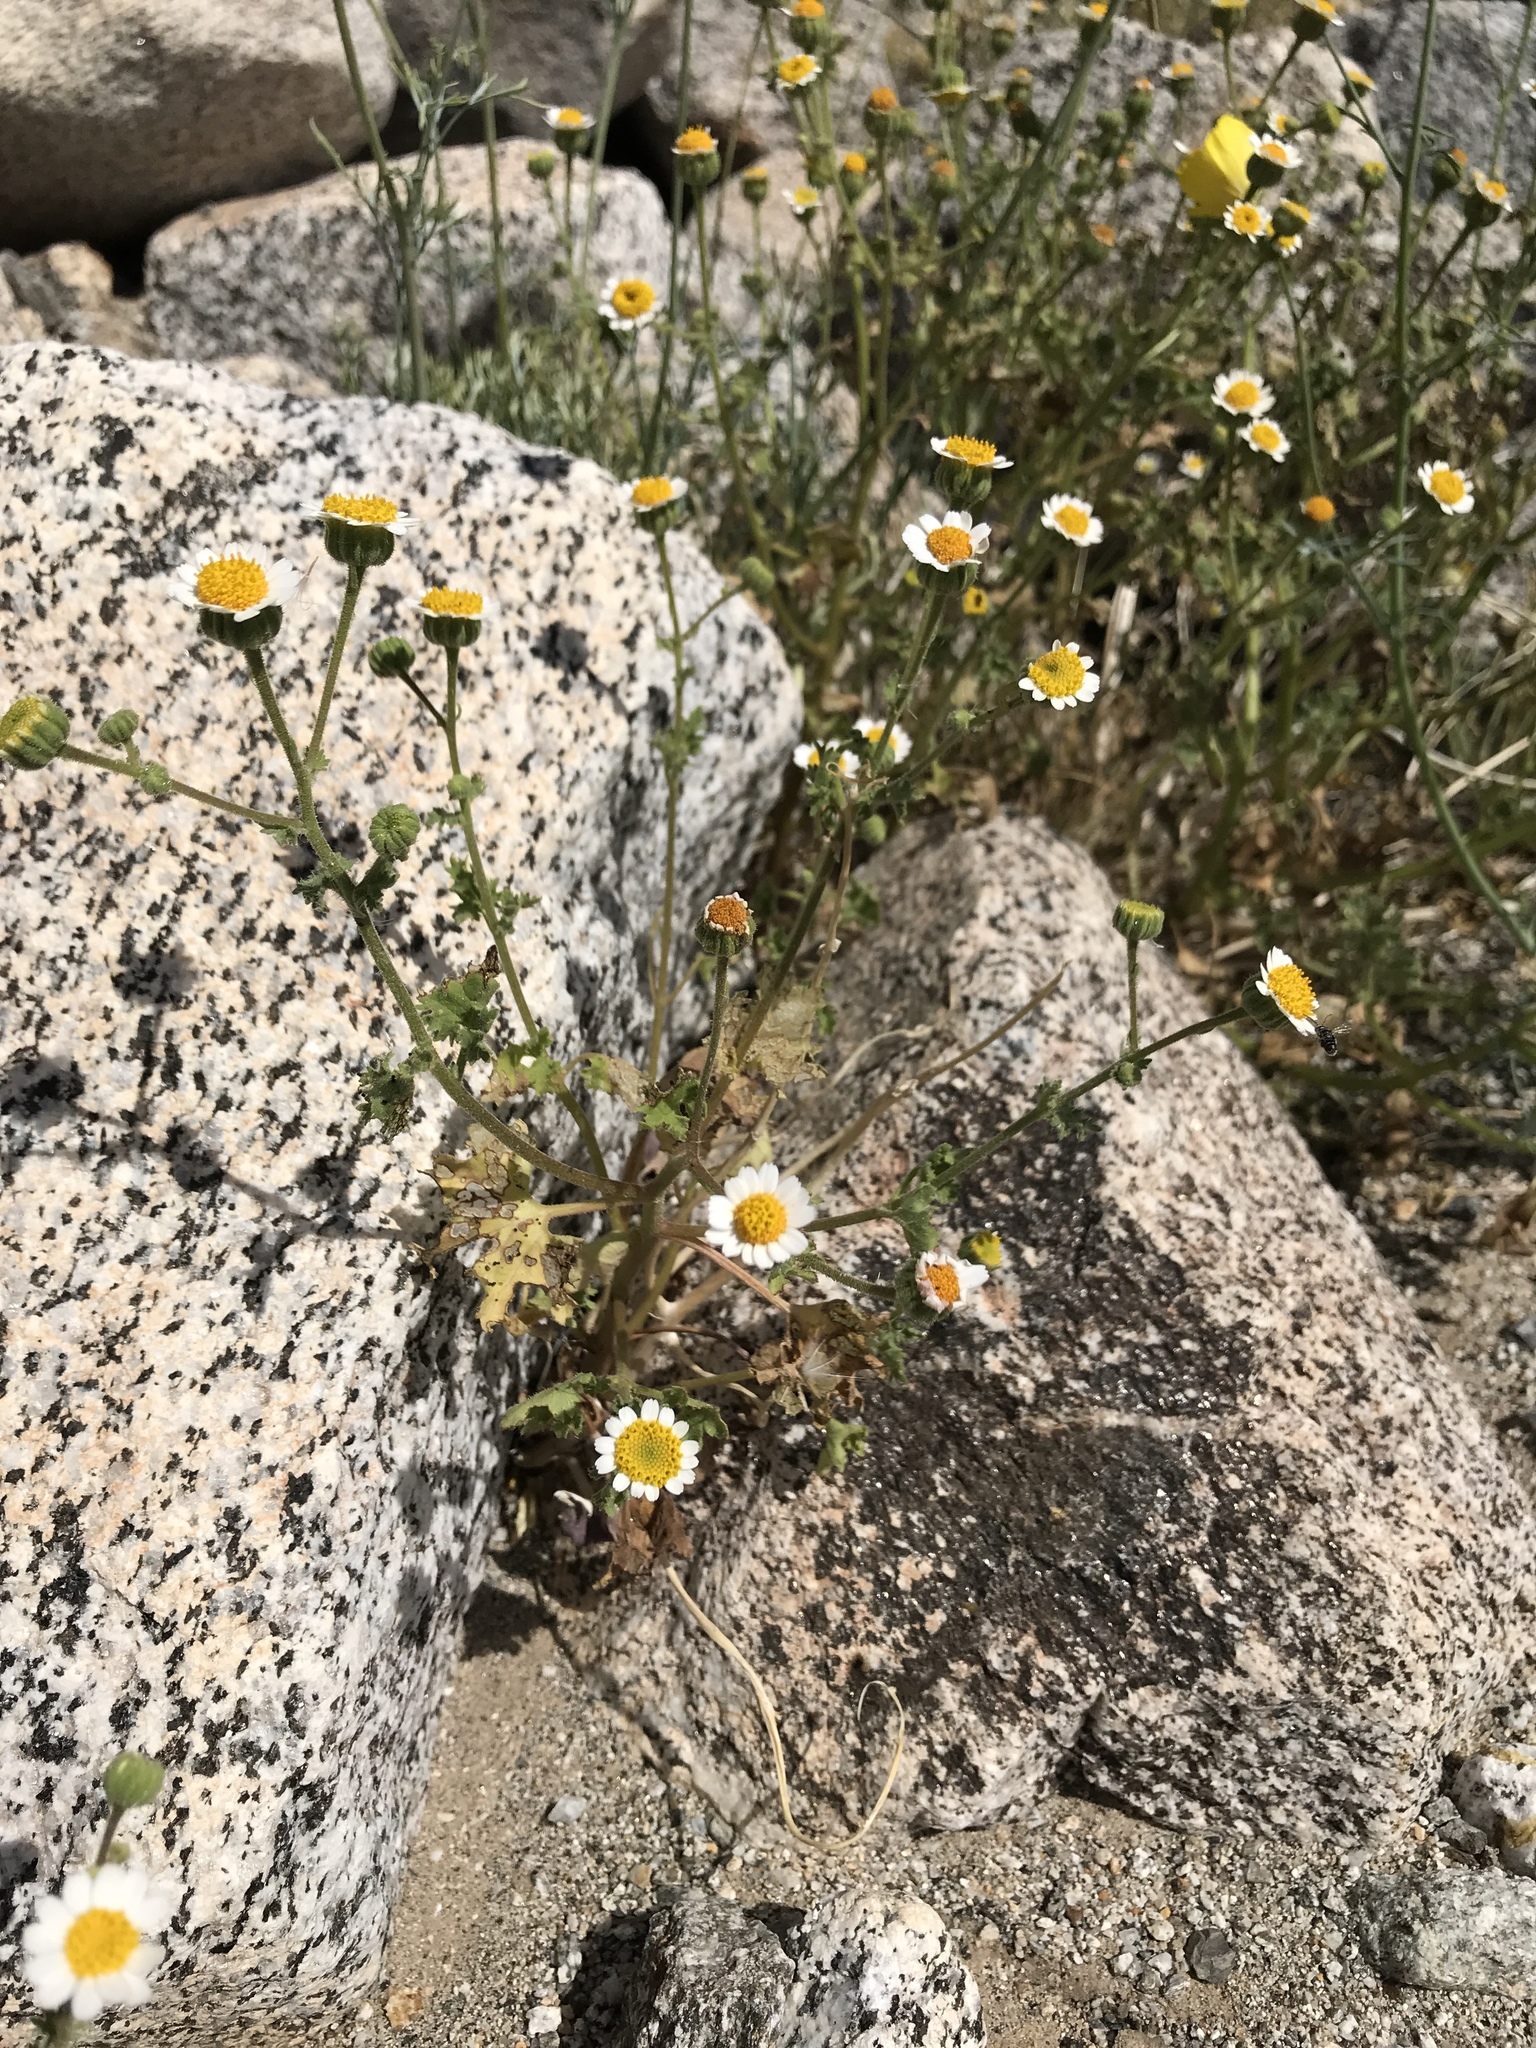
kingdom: Plantae
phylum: Tracheophyta
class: Magnoliopsida
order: Asterales
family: Asteraceae
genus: Laphamia
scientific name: Laphamia emoryi
